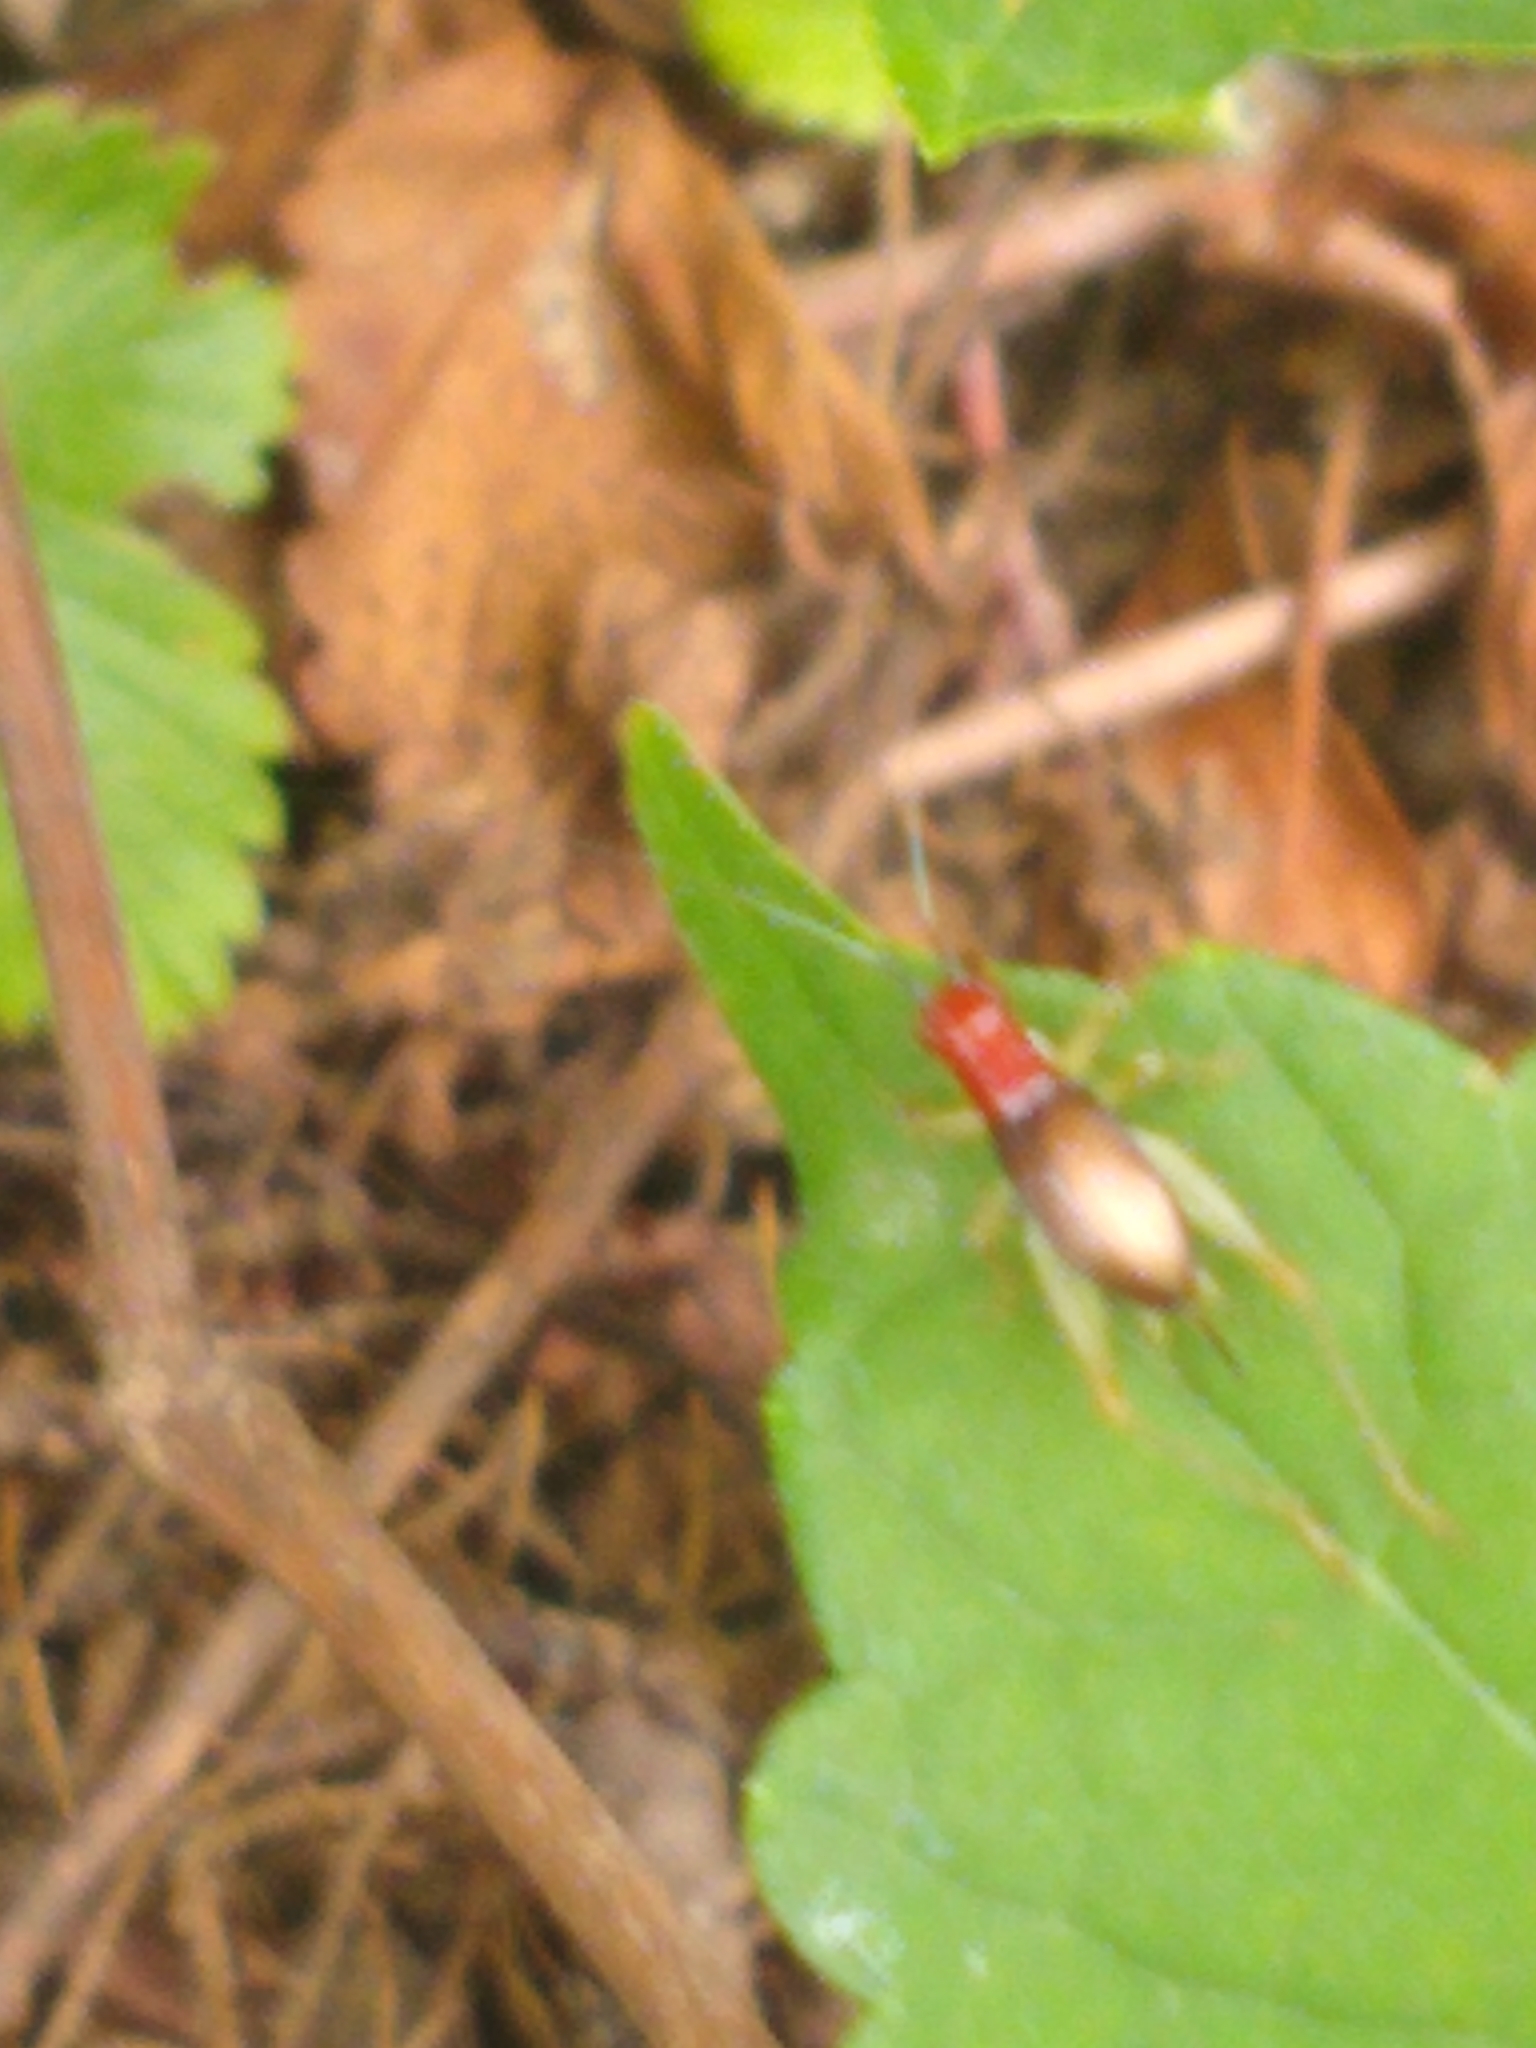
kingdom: Animalia
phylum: Arthropoda
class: Insecta
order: Orthoptera
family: Trigonidiidae
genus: Phyllopalpus
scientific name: Phyllopalpus pulchellus
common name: Handsome trig
